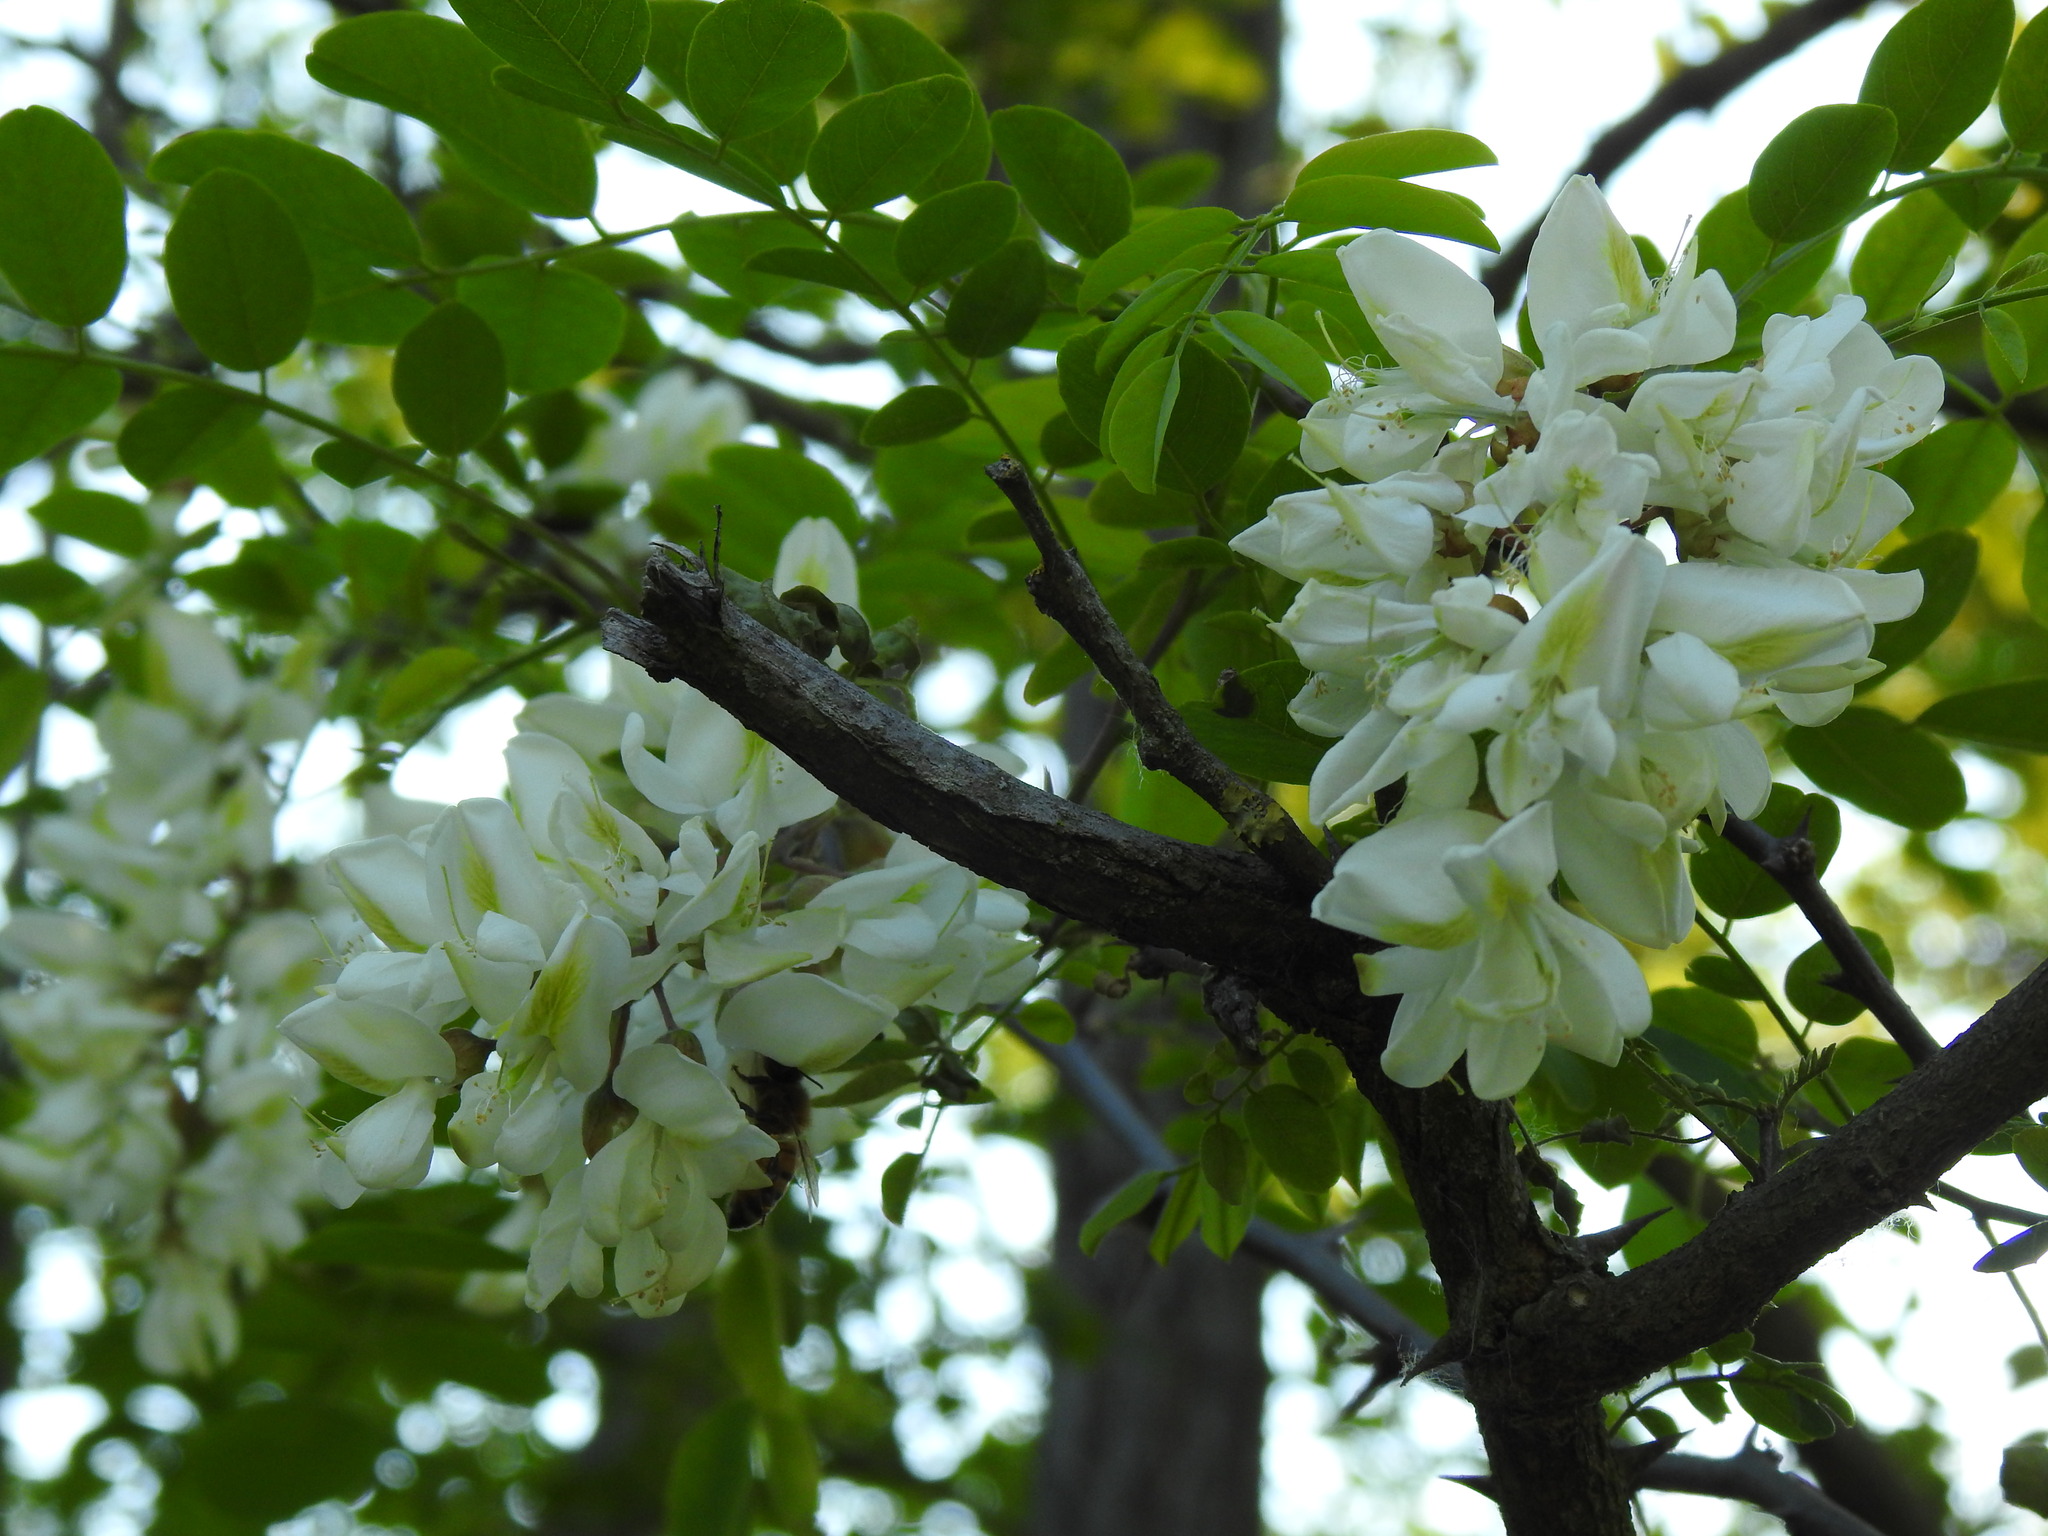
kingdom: Plantae
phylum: Tracheophyta
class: Magnoliopsida
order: Fabales
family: Fabaceae
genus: Robinia
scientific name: Robinia pseudoacacia
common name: Black locust
